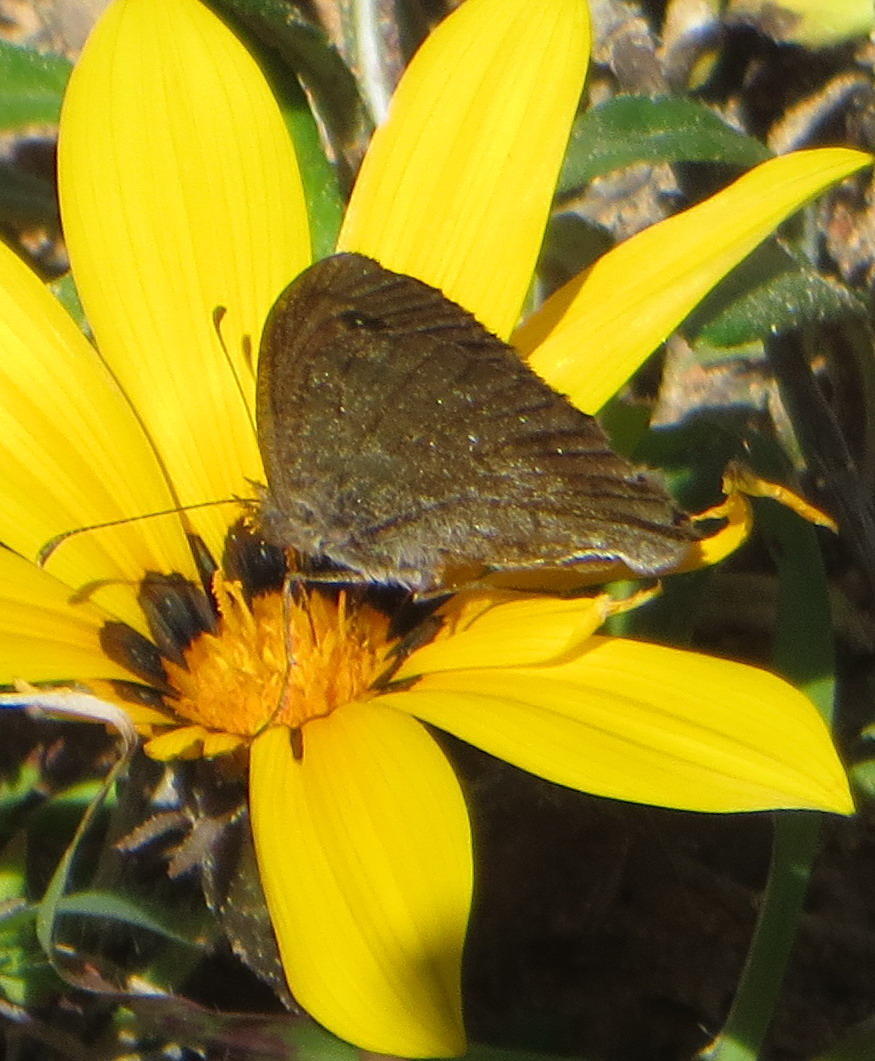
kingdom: Animalia
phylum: Arthropoda
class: Insecta
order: Lepidoptera
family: Nymphalidae
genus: Pseudonympha
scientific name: Pseudonympha detecta
